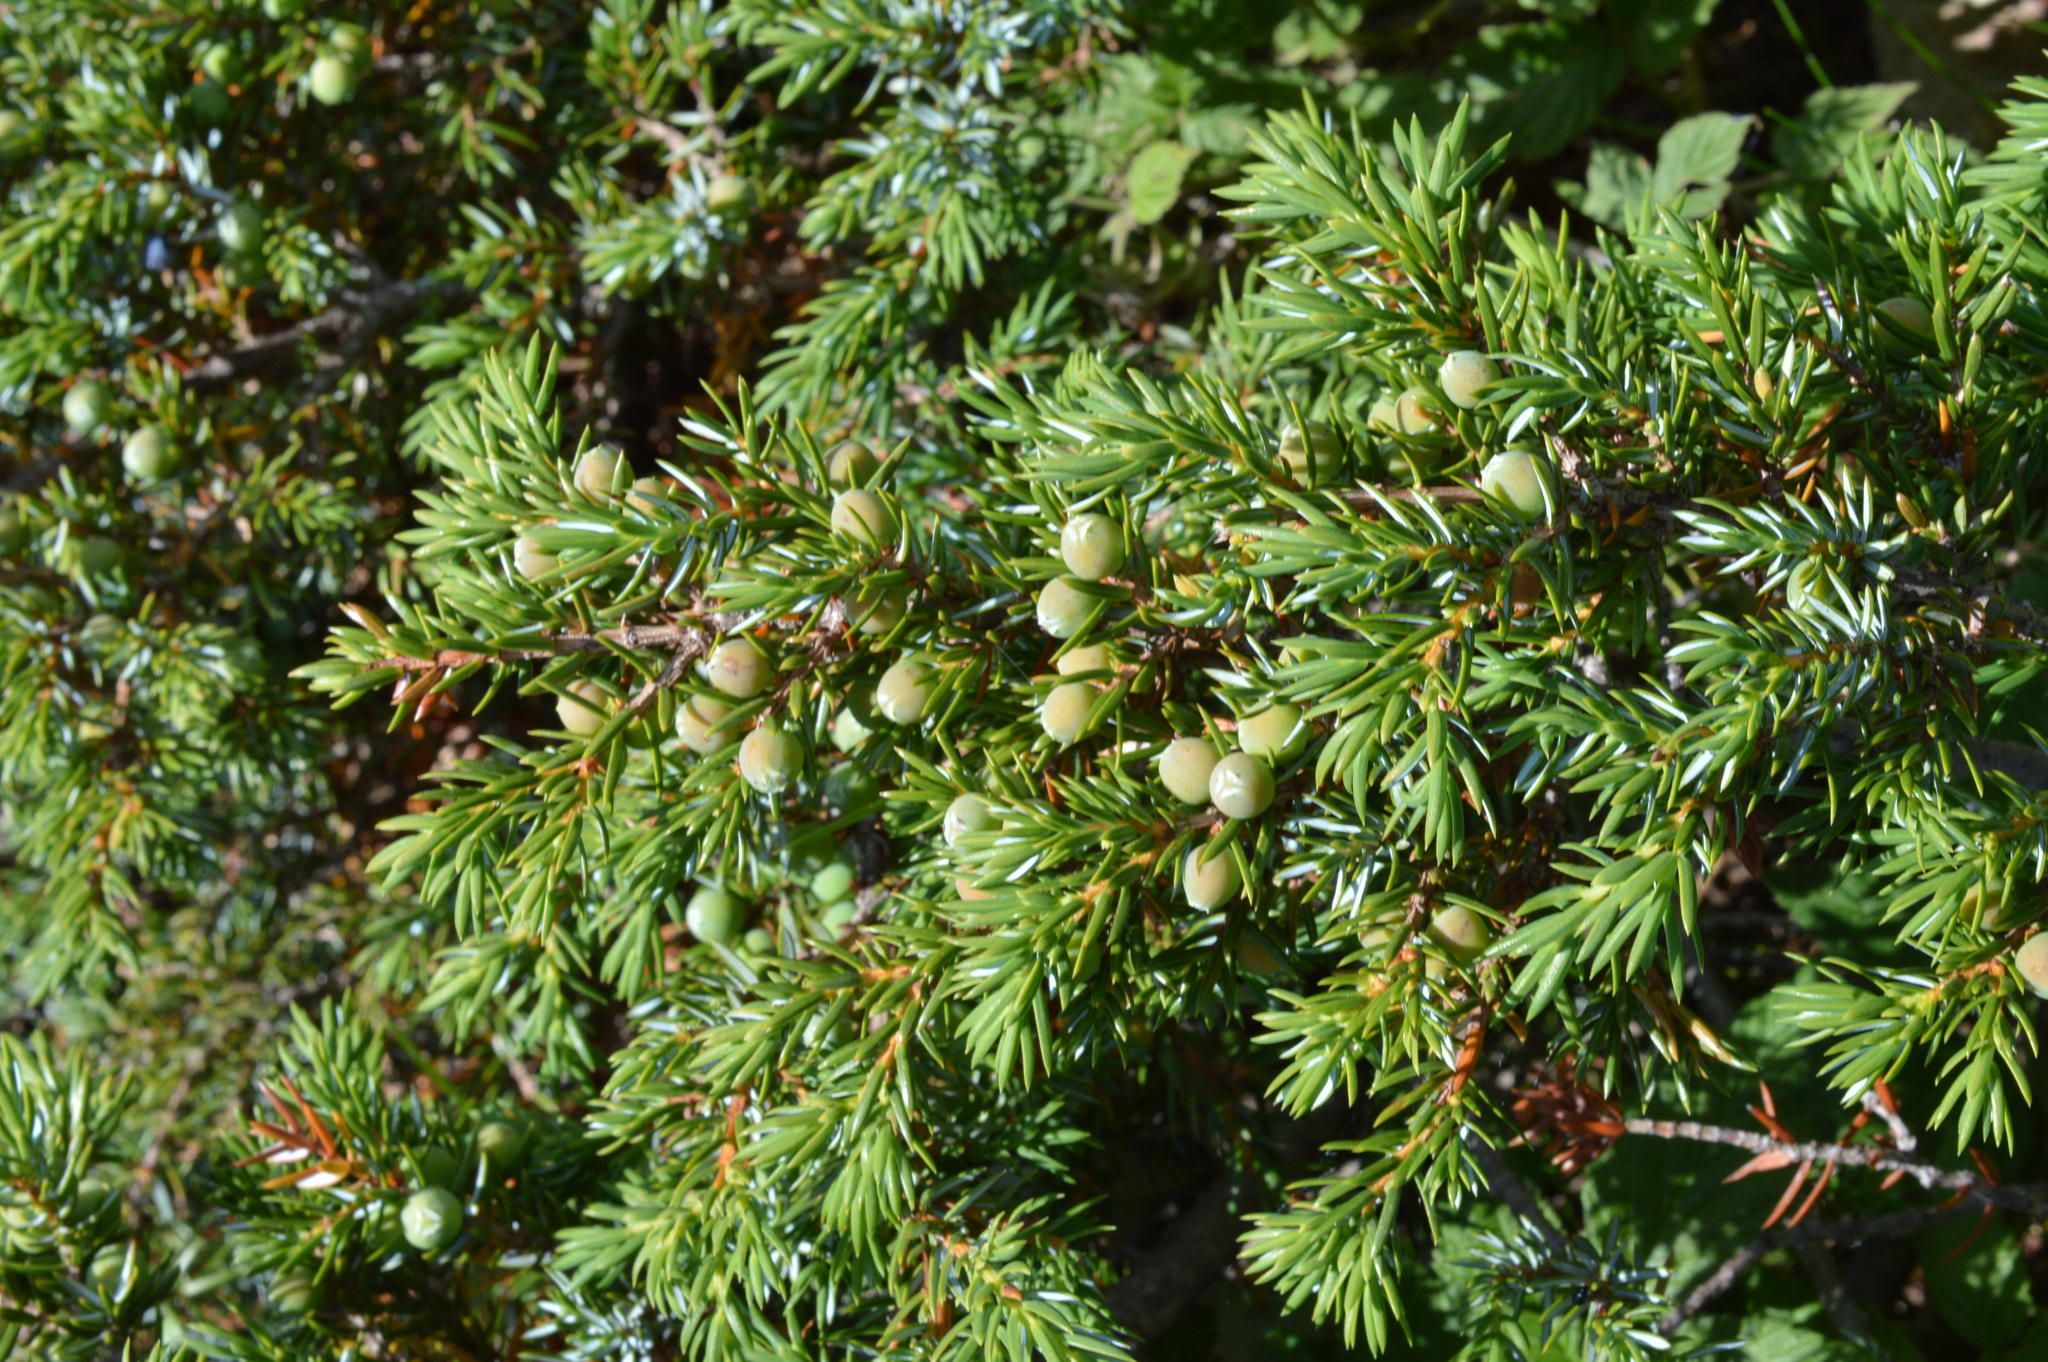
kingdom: Plantae
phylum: Tracheophyta
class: Pinopsida
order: Pinales
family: Cupressaceae
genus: Juniperus
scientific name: Juniperus communis
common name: Common juniper
